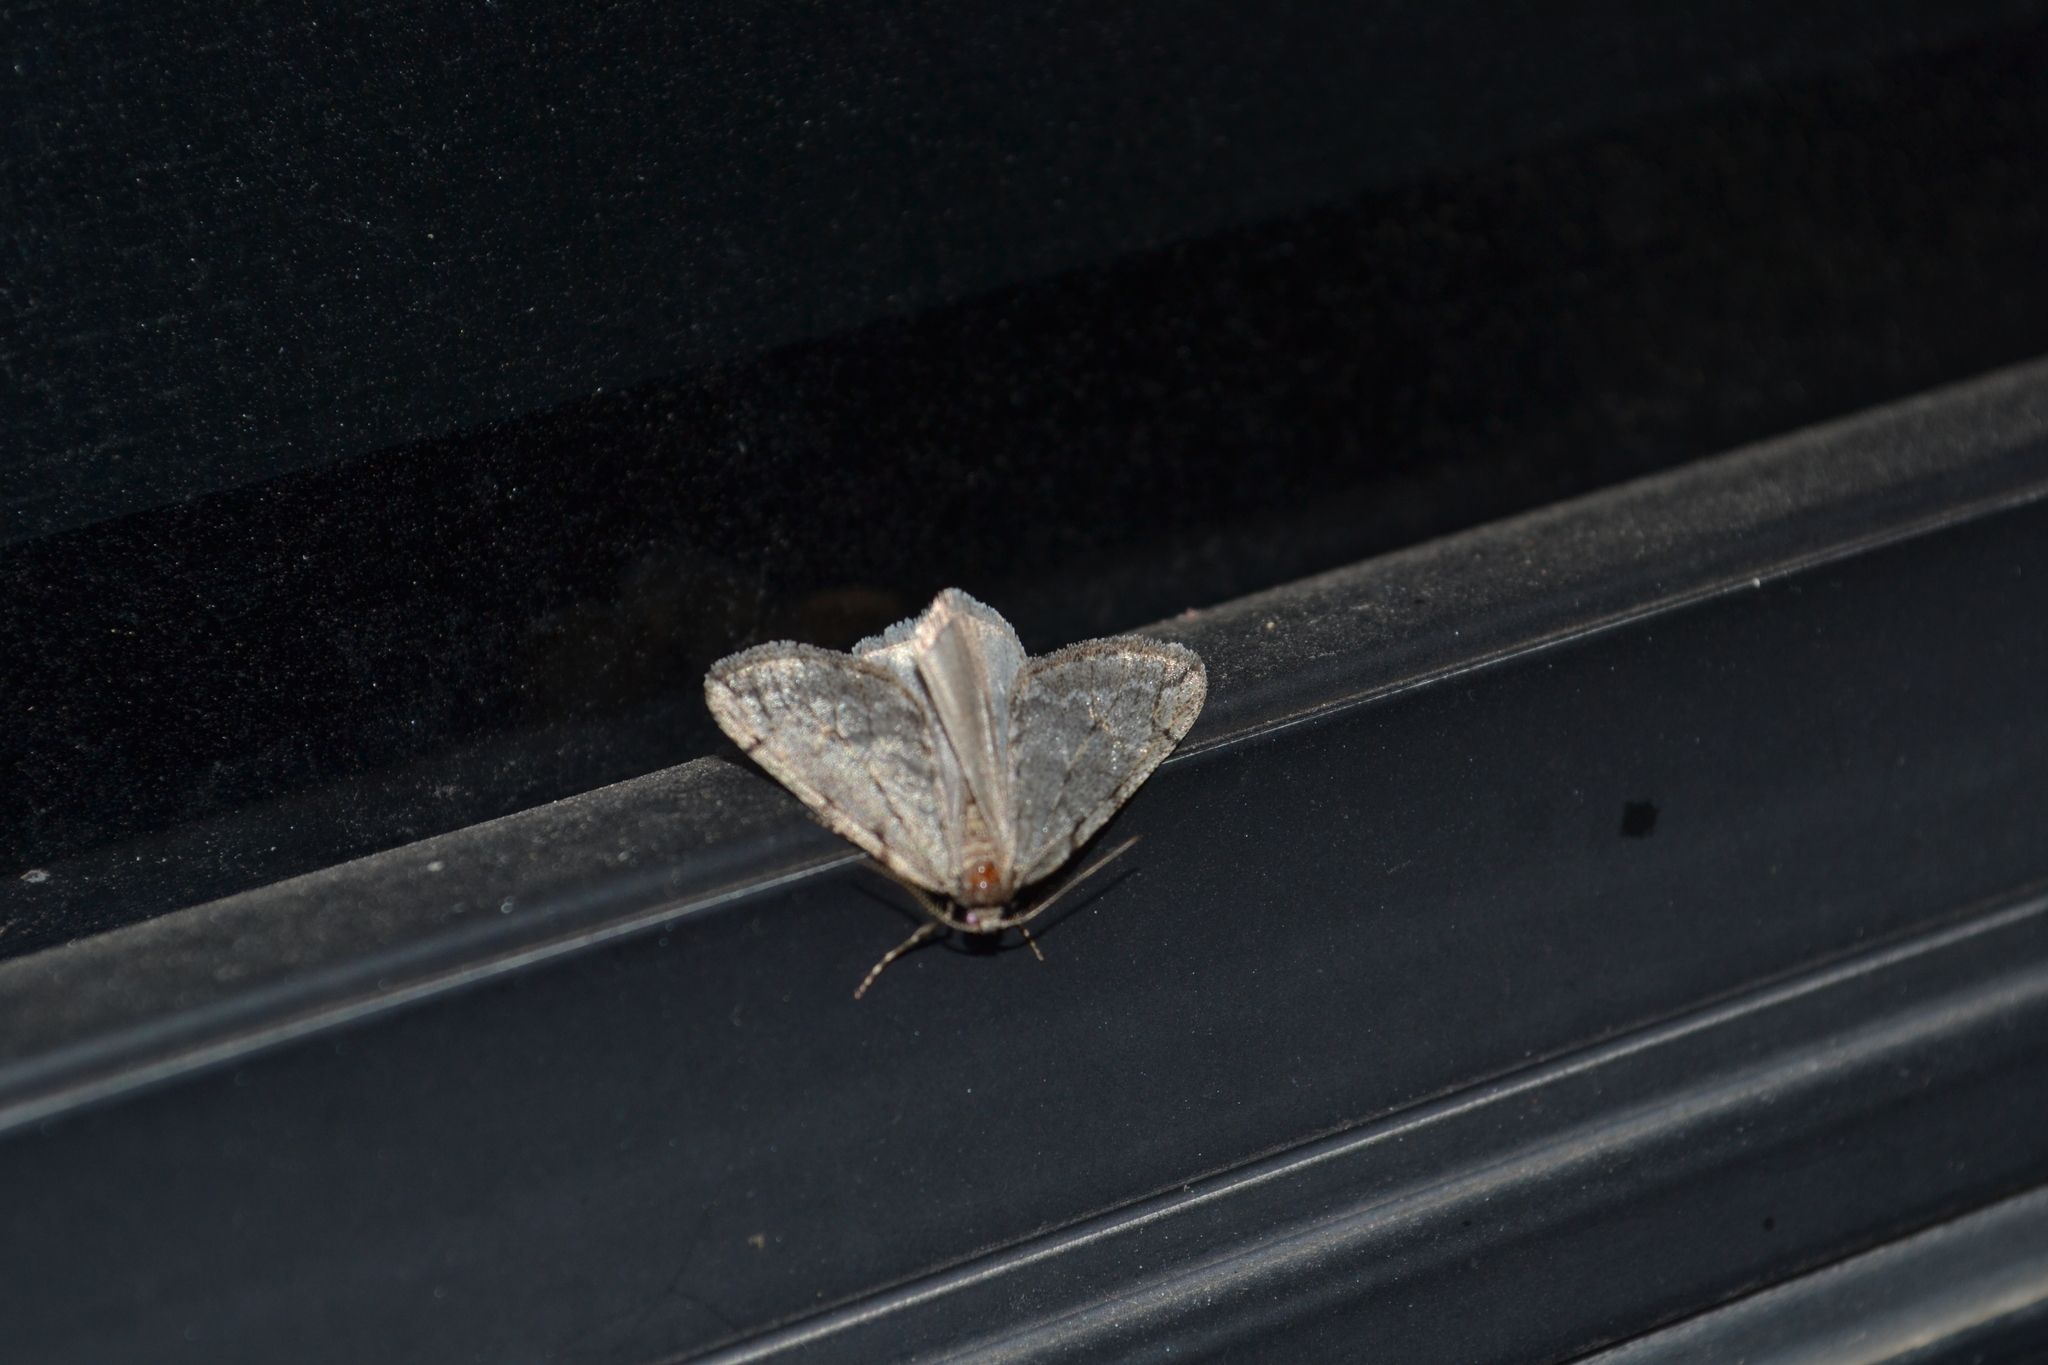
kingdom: Animalia
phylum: Arthropoda
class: Insecta
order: Lepidoptera
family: Geometridae
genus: Paleacrita
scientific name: Paleacrita vernata
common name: Spring cankerworm
